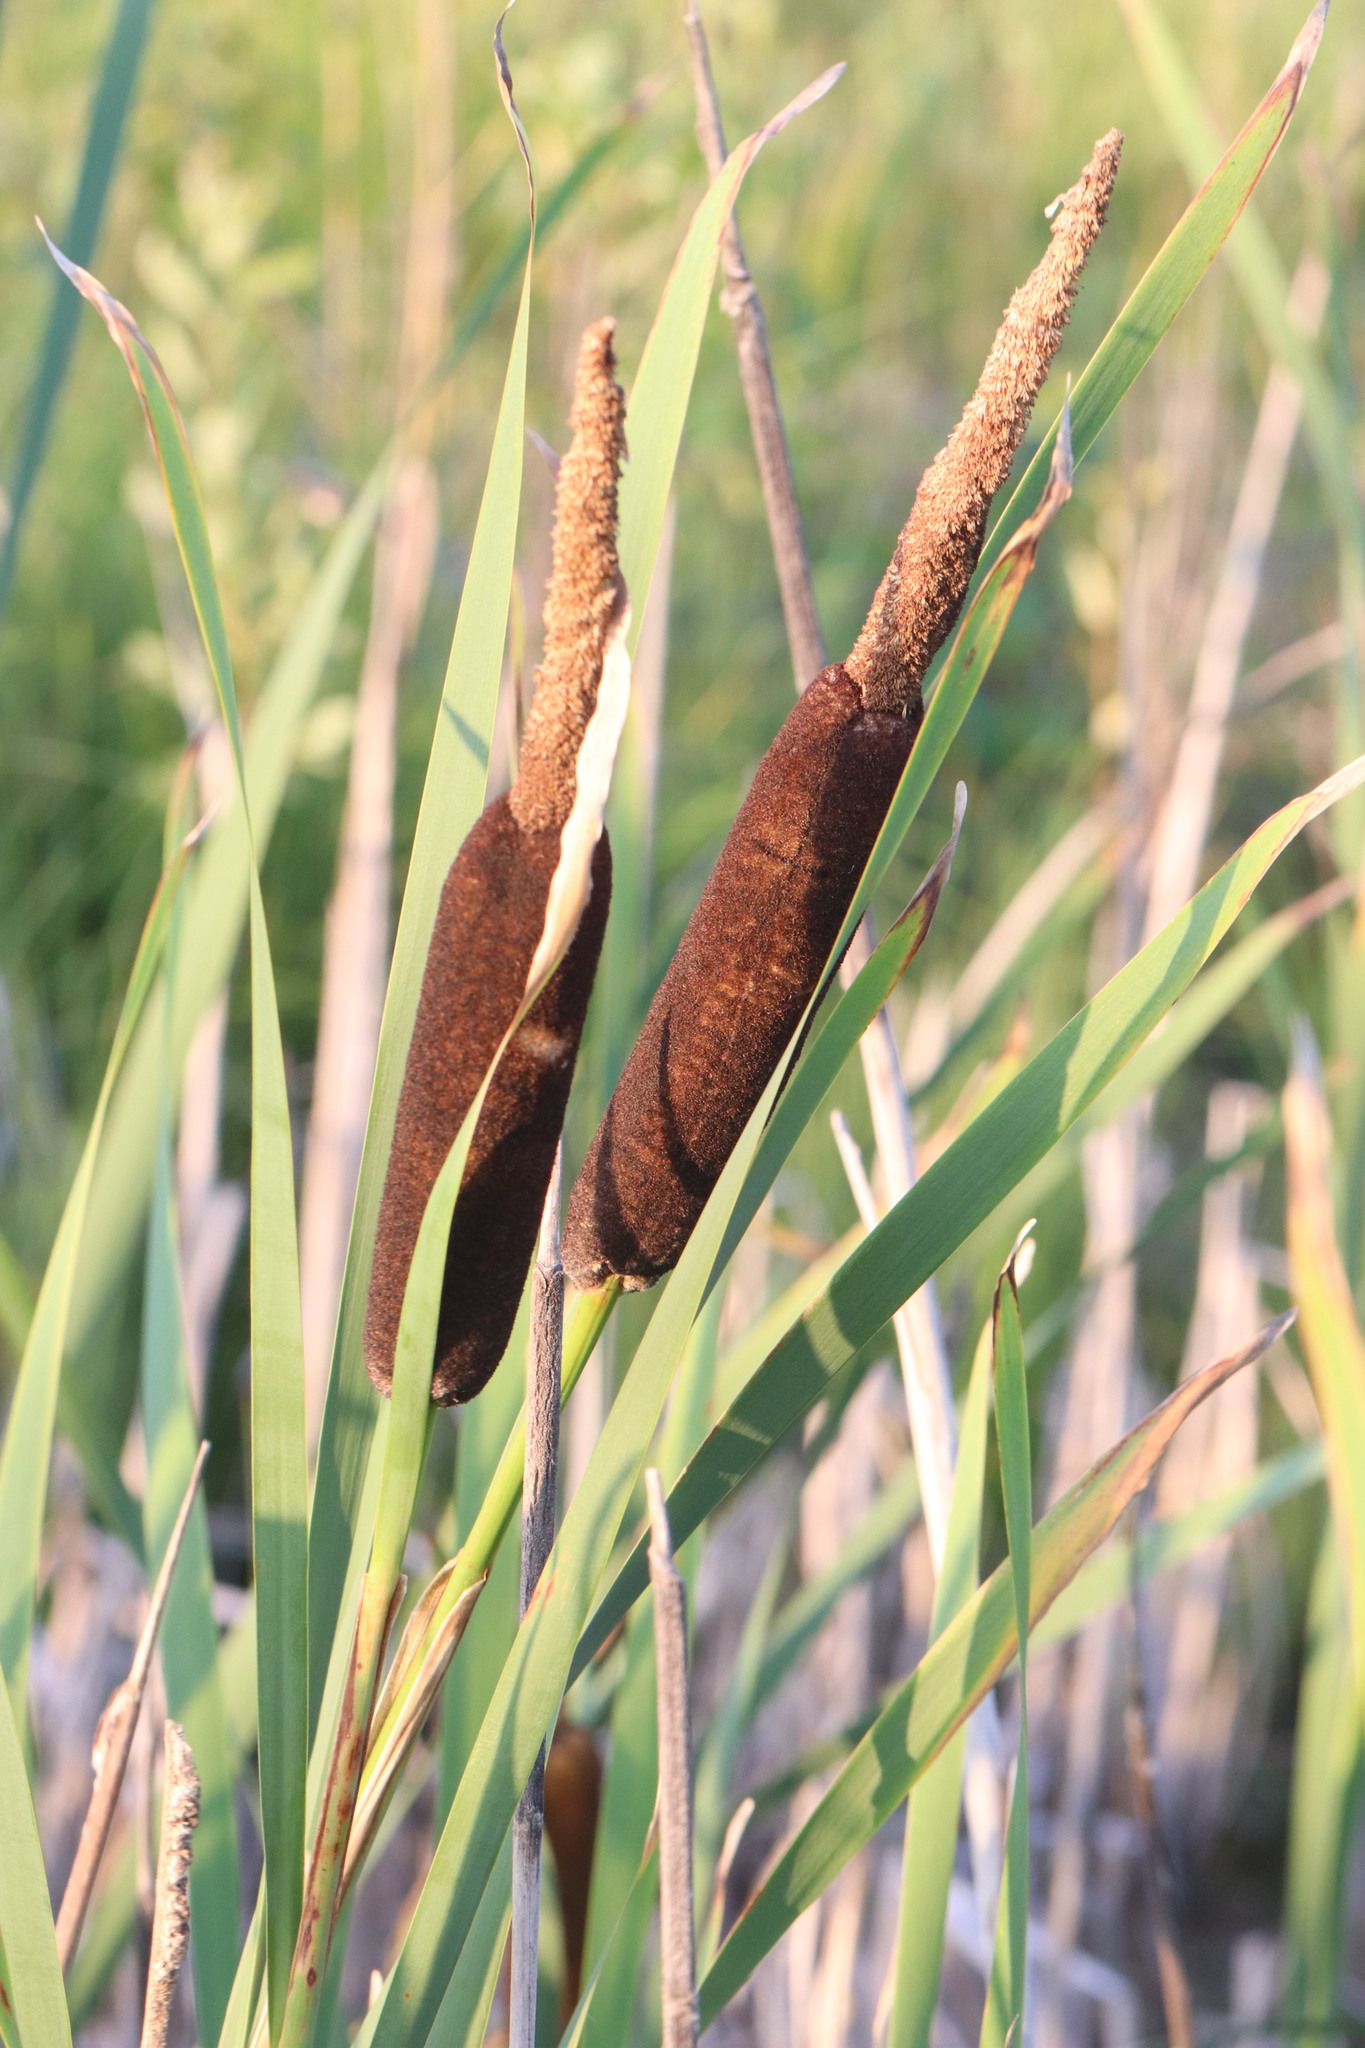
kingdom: Plantae
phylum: Tracheophyta
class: Liliopsida
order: Poales
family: Typhaceae
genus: Typha
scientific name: Typha latifolia
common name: Broadleaf cattail
